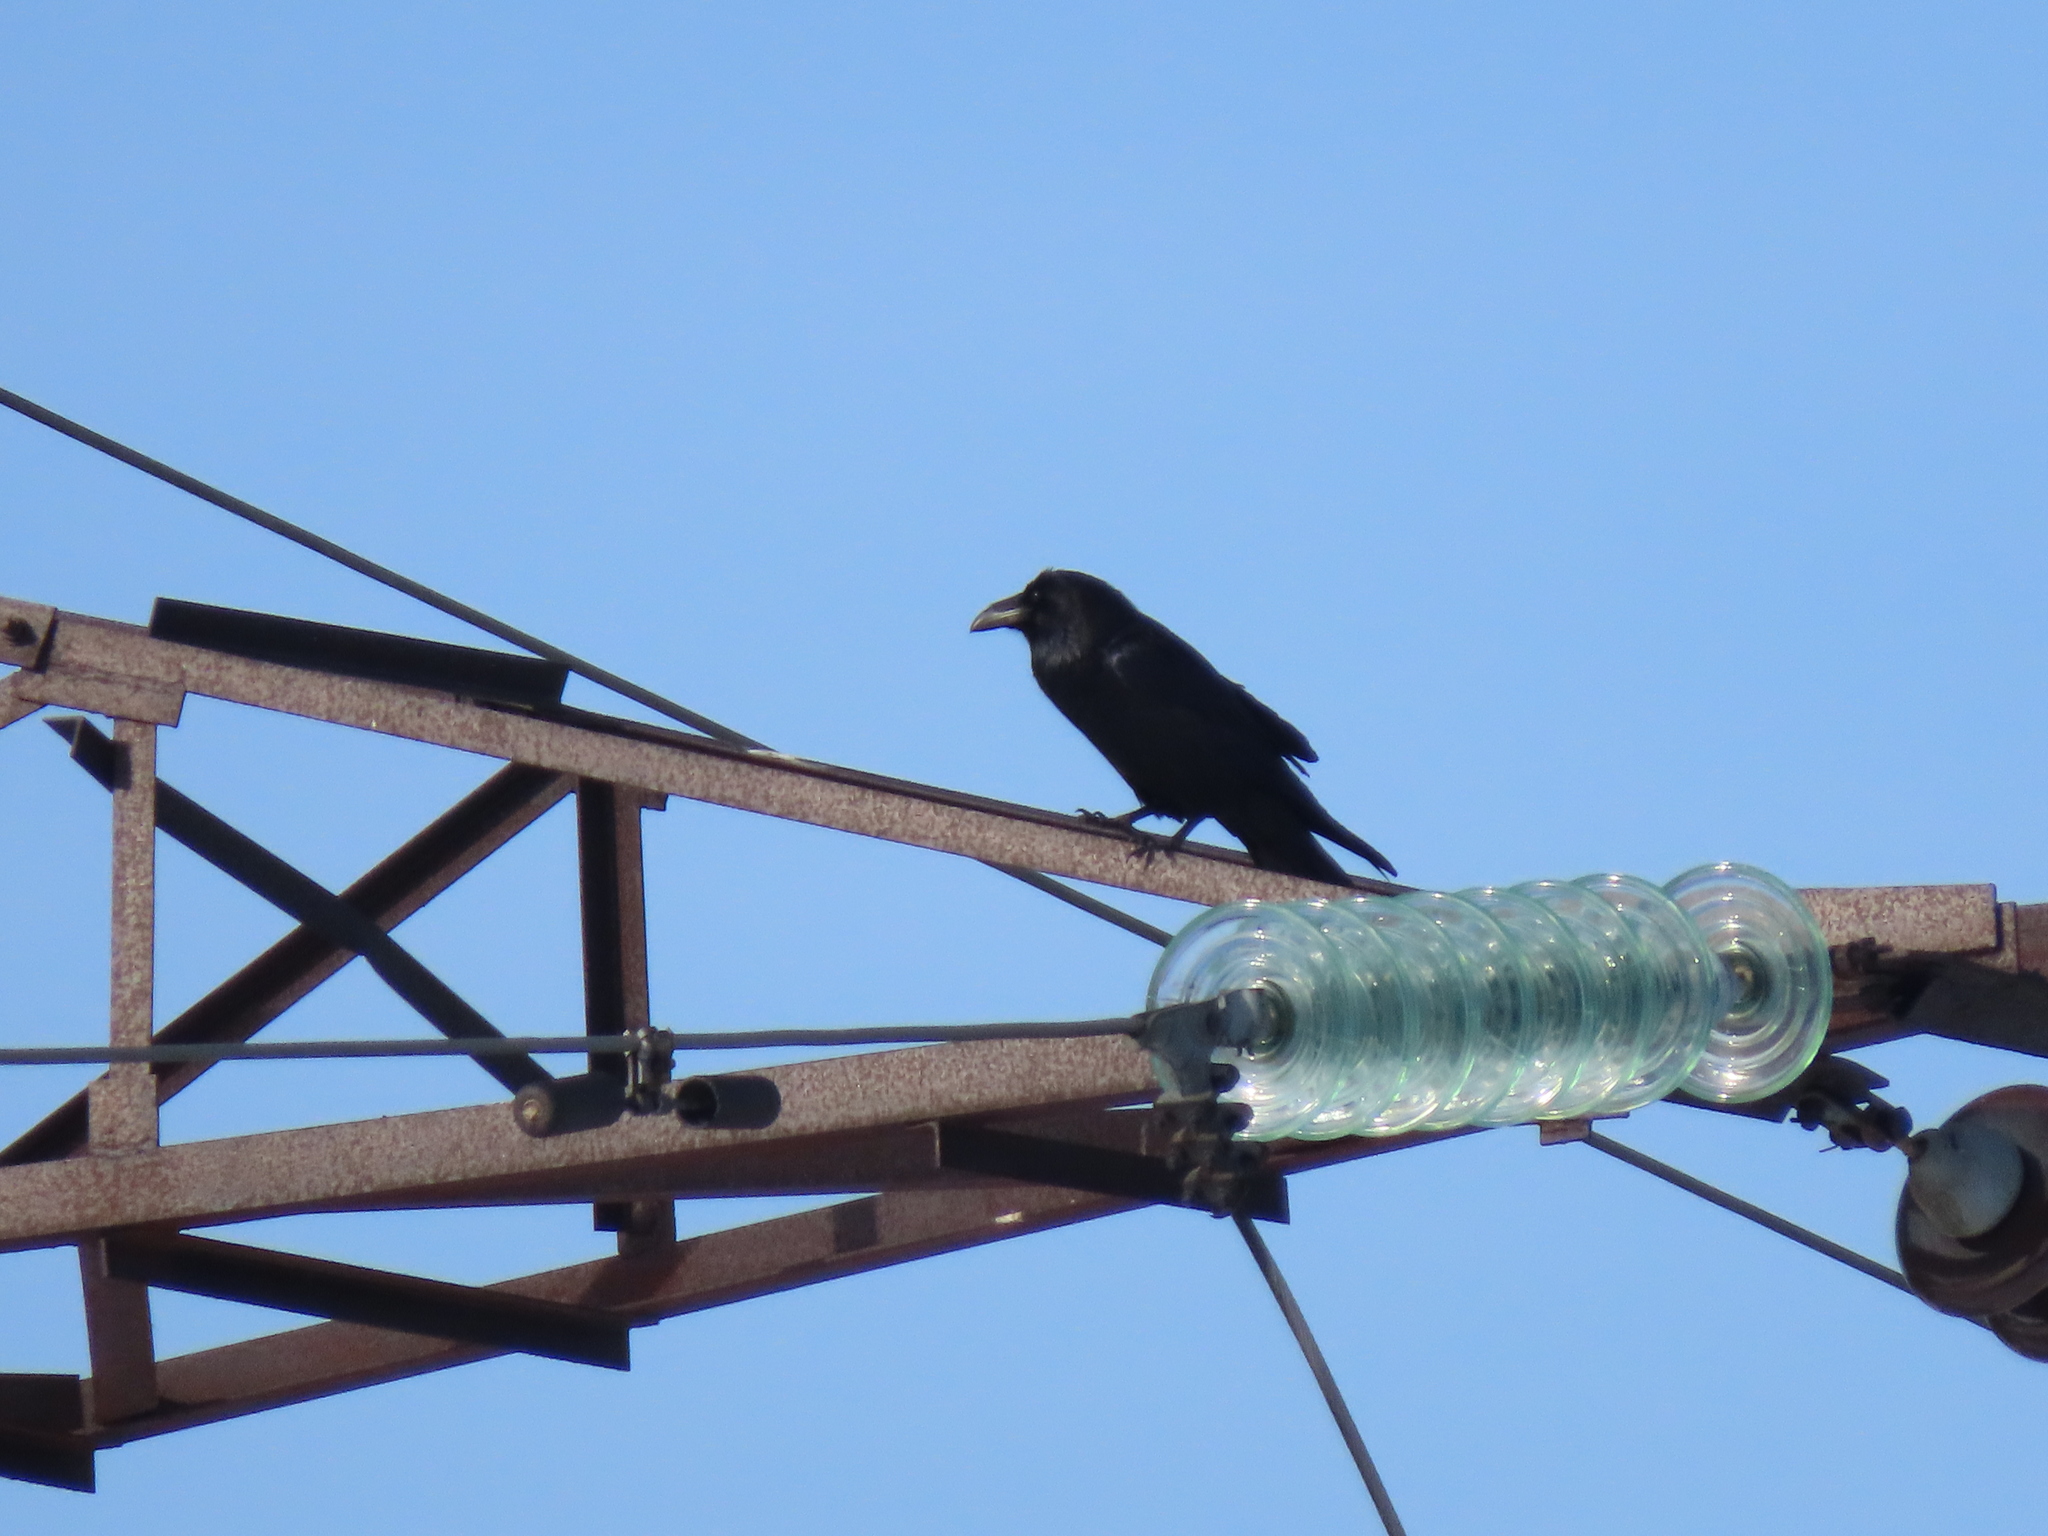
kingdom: Animalia
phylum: Chordata
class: Aves
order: Passeriformes
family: Corvidae
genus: Corvus
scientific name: Corvus corax
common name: Common raven
